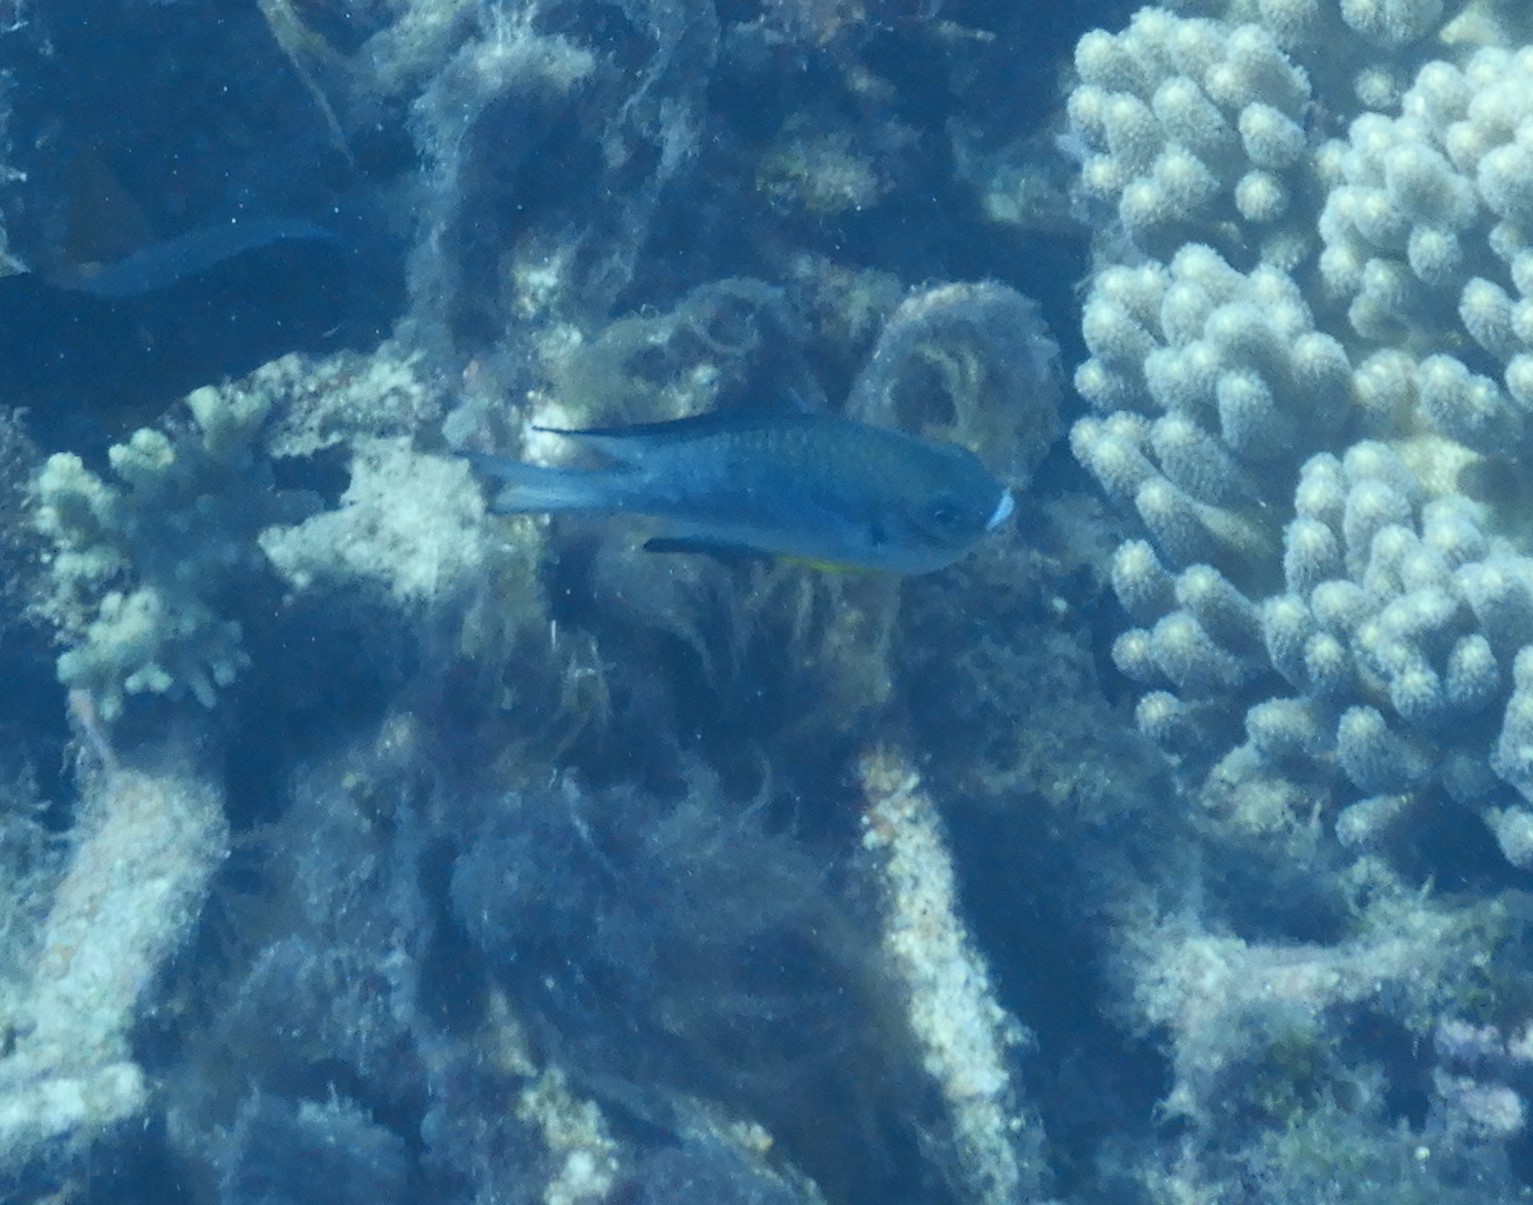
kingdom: Animalia
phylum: Chordata
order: Perciformes
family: Pomacentridae
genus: Amblyglyphidodon
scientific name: Amblyglyphidodon leucogaster
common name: White-belly damsel
